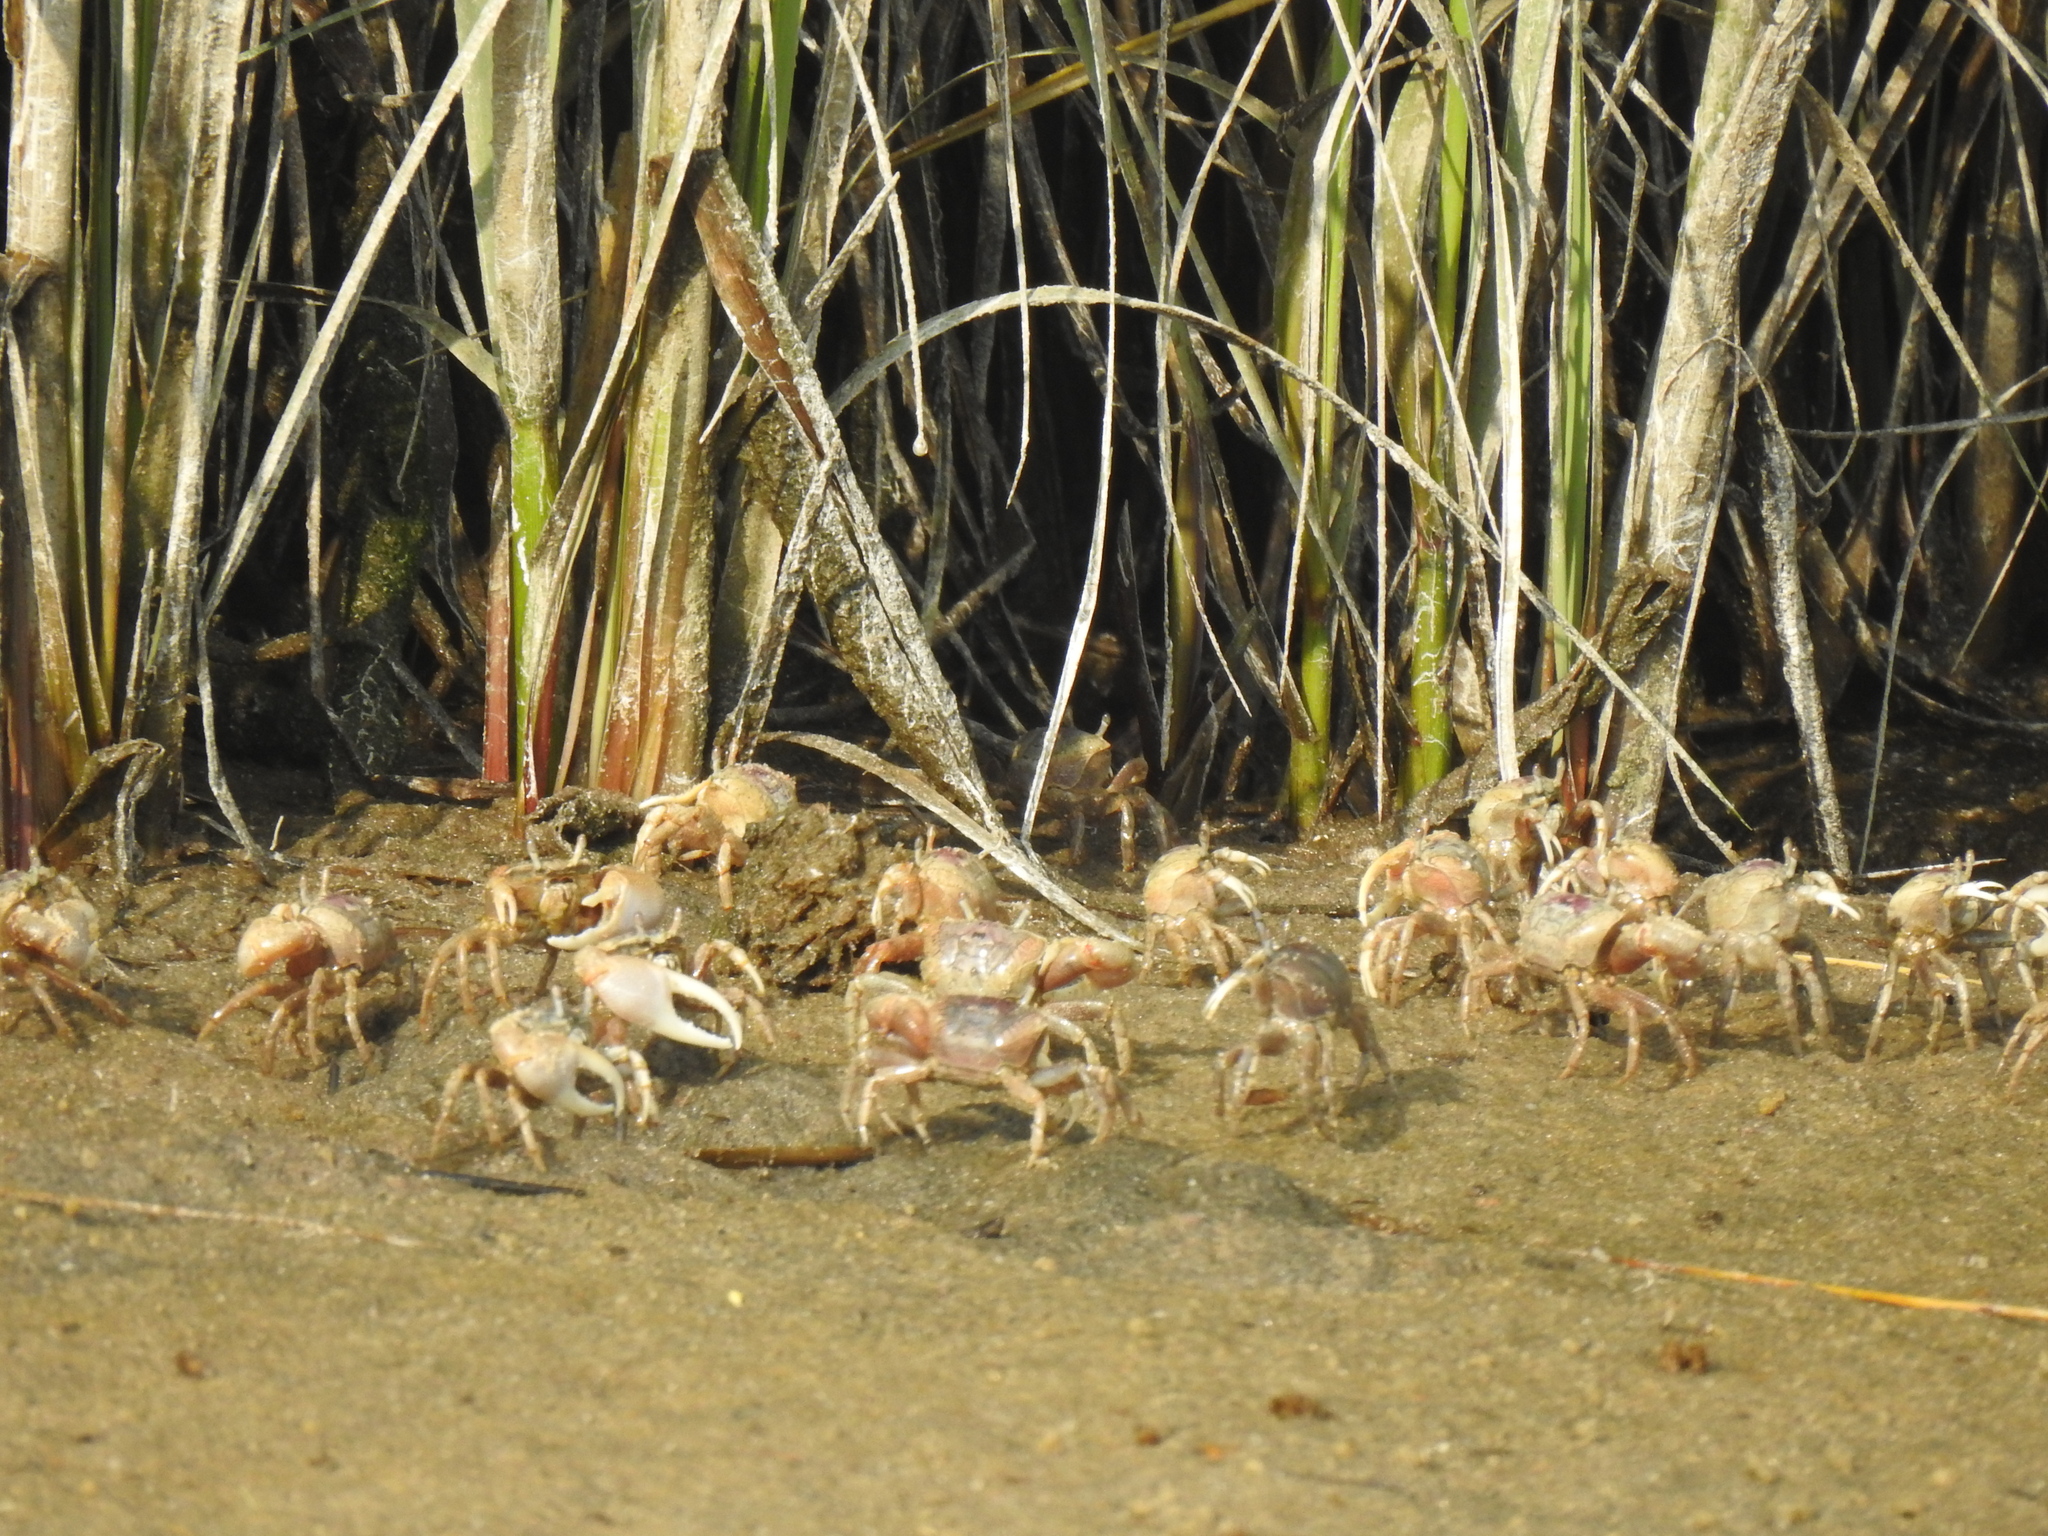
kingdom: Animalia
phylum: Arthropoda
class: Malacostraca
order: Decapoda
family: Ocypodidae
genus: Leptuca
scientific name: Leptuca pugilator
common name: Atlantic sand fiddler crab
